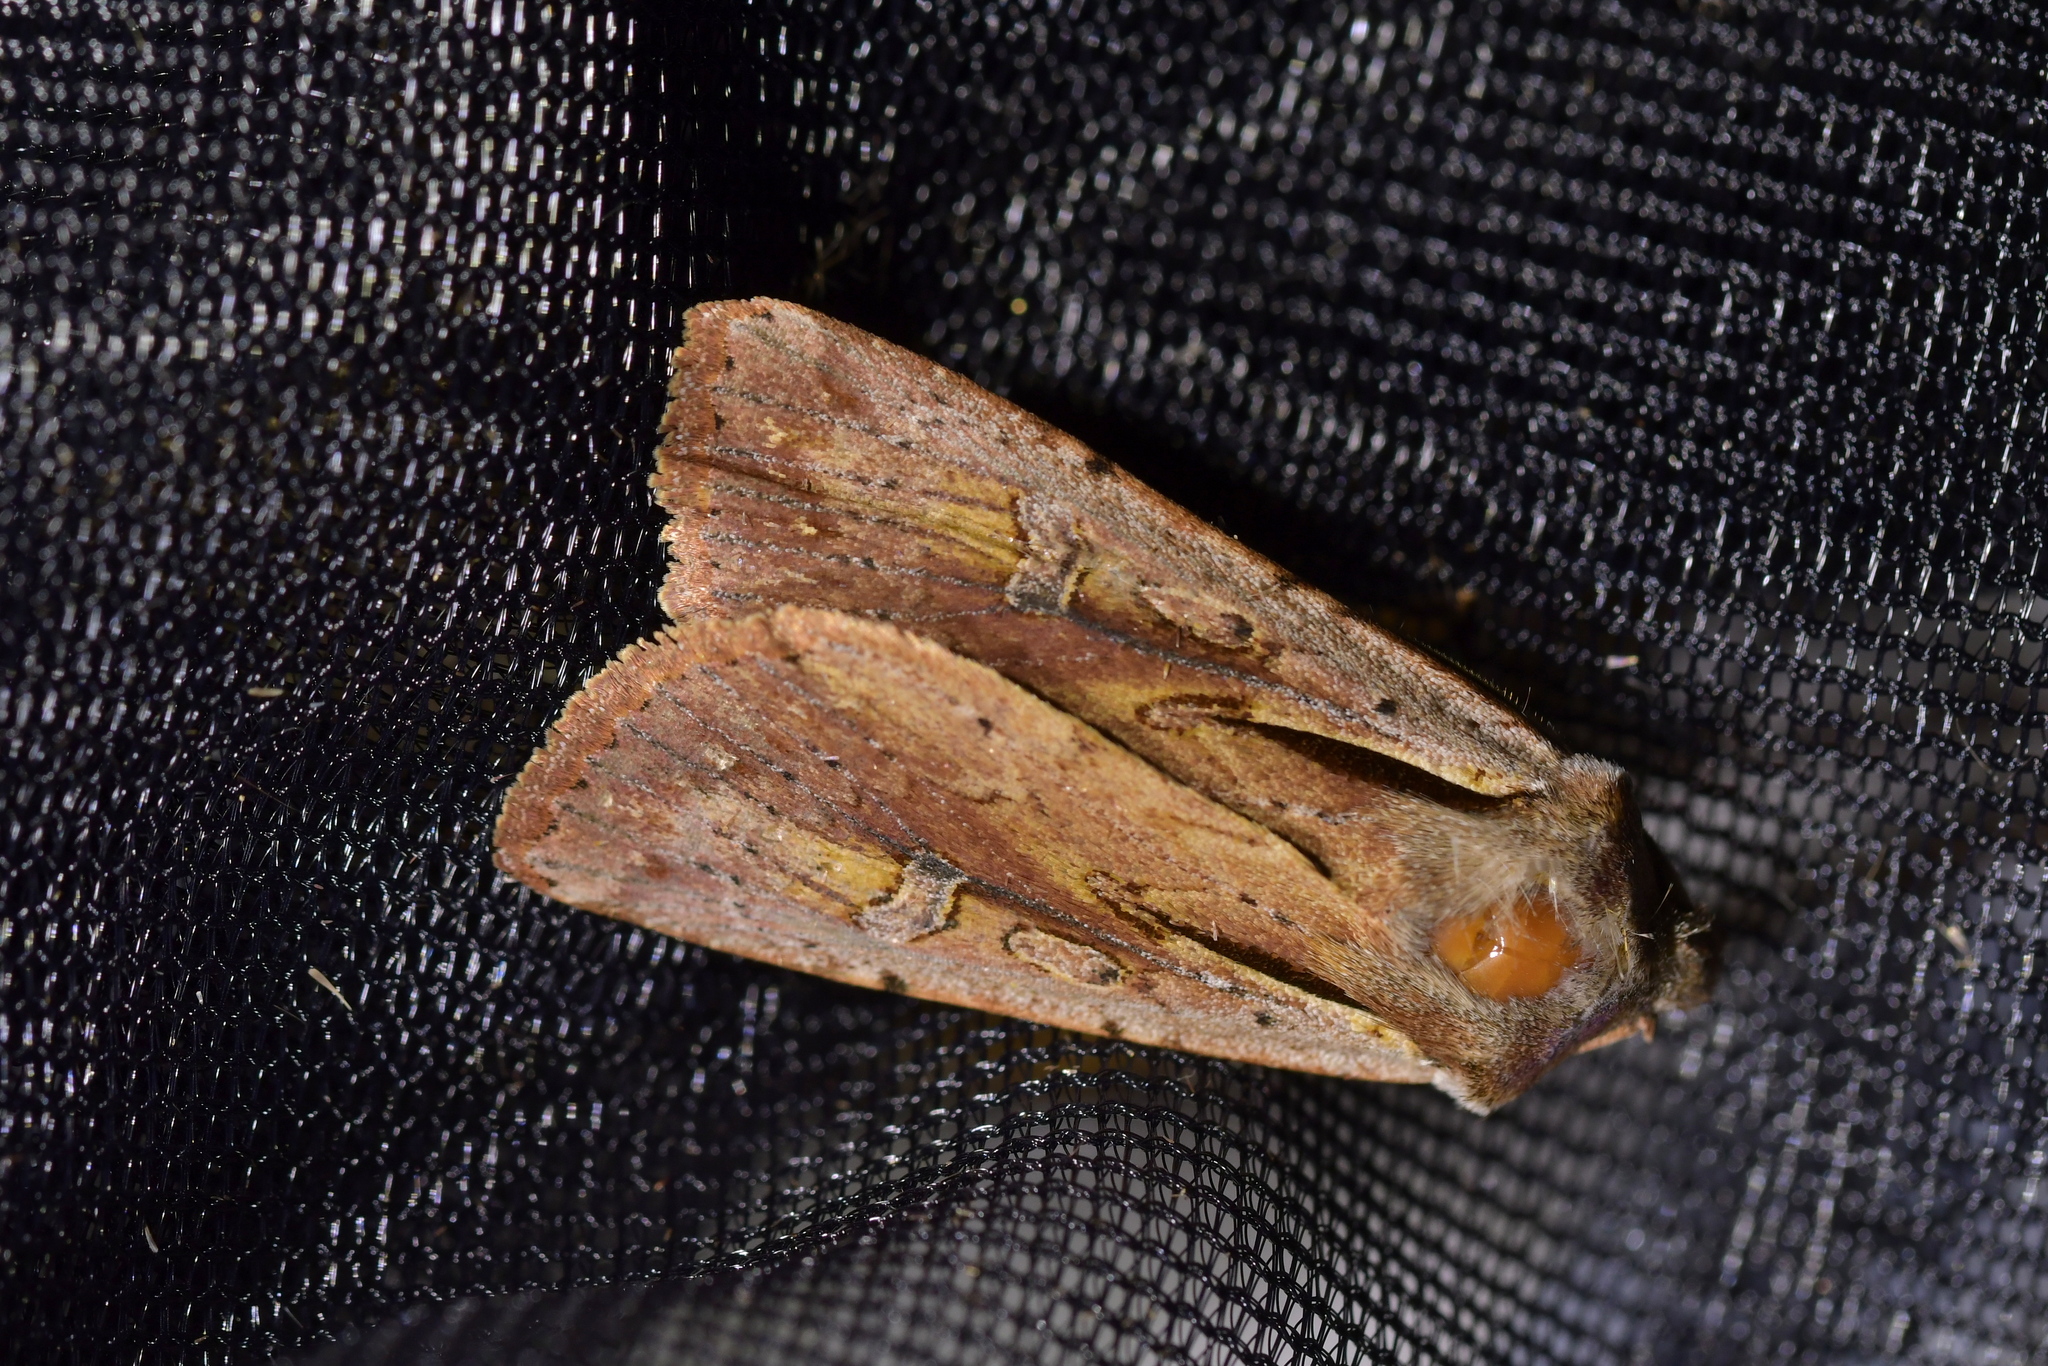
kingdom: Animalia
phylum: Arthropoda
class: Insecta
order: Lepidoptera
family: Noctuidae
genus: Ichneutica
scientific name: Ichneutica atristriga
